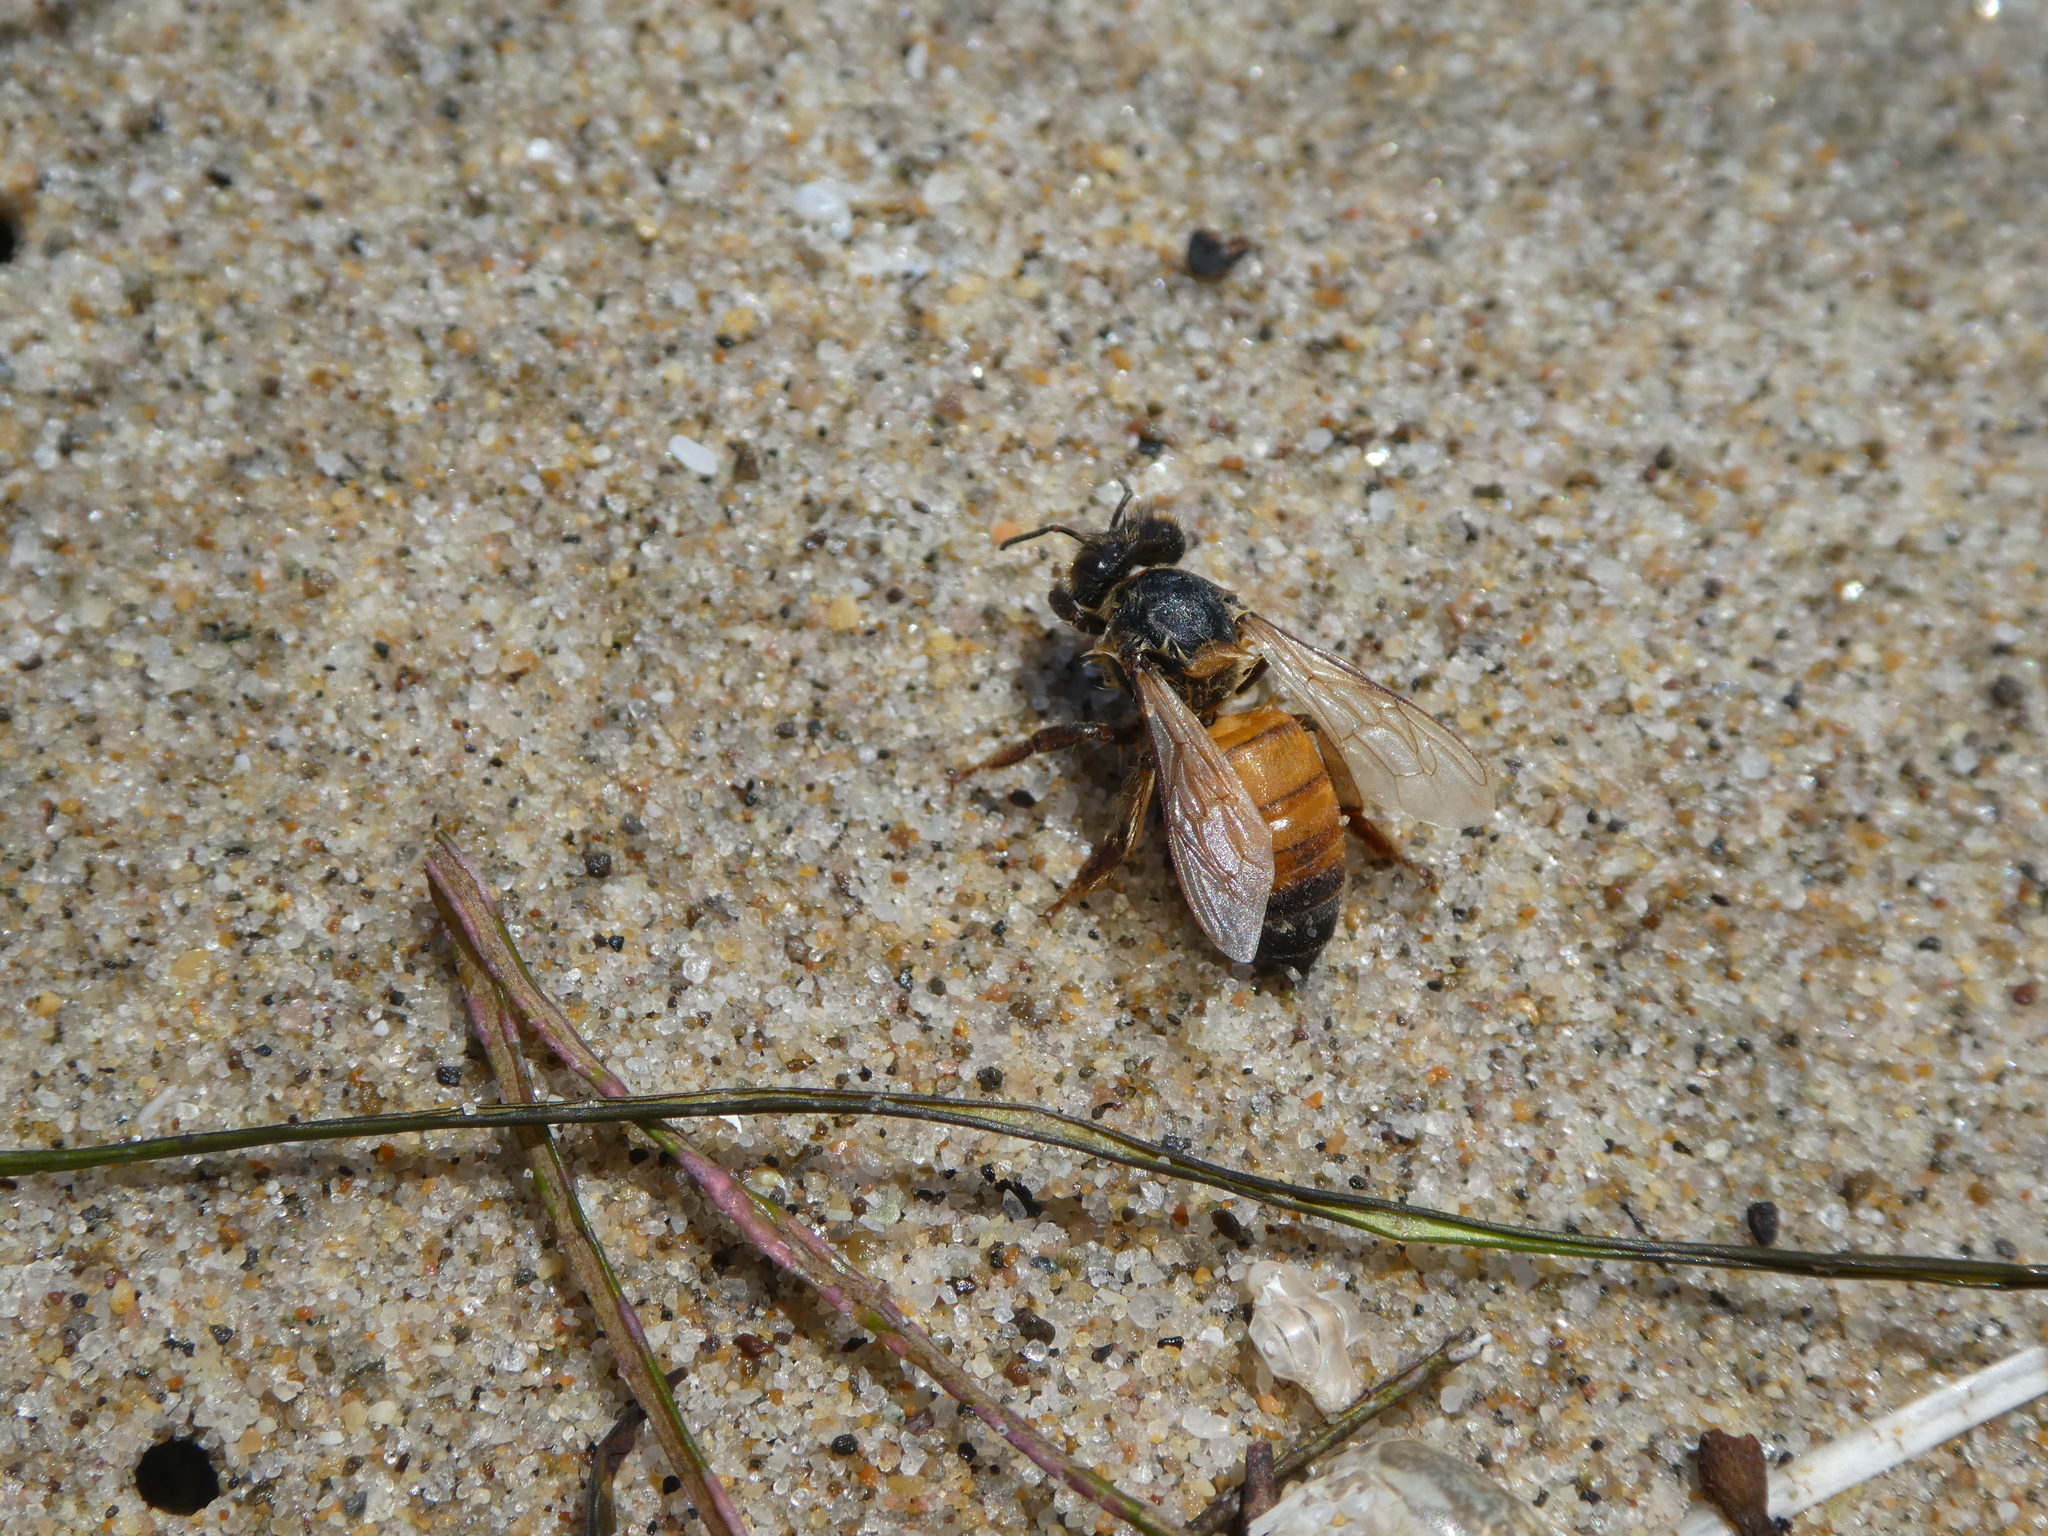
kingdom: Animalia
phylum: Arthropoda
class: Insecta
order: Hymenoptera
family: Apidae
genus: Apis
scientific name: Apis mellifera
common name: Honey bee
